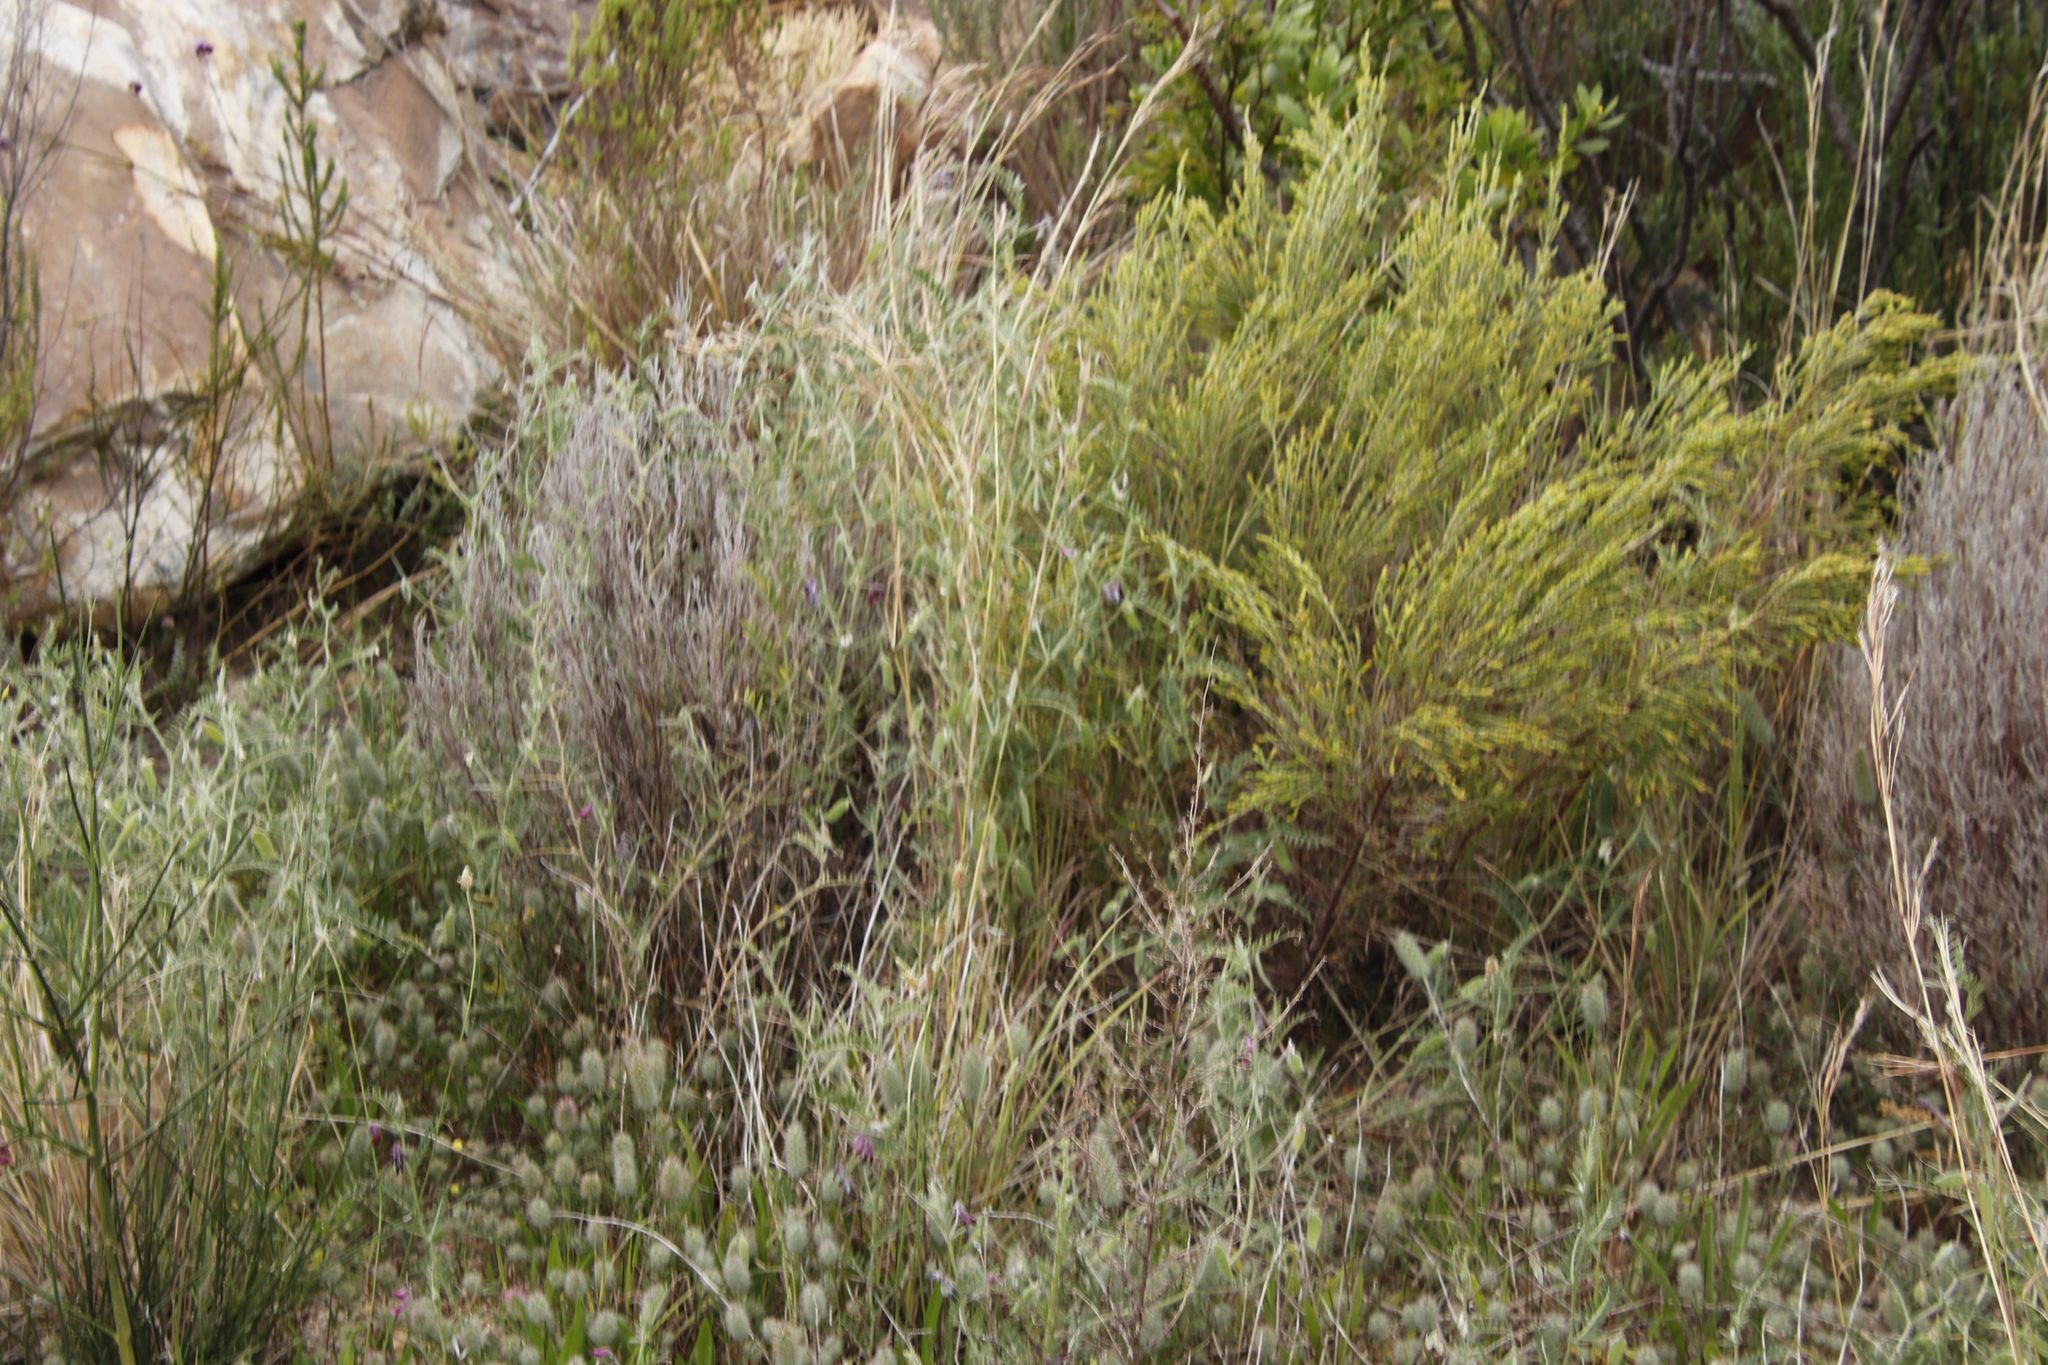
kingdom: Plantae
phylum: Tracheophyta
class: Magnoliopsida
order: Fabales
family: Fabaceae
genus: Vicia
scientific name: Vicia benghalensis
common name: Purple vetch
